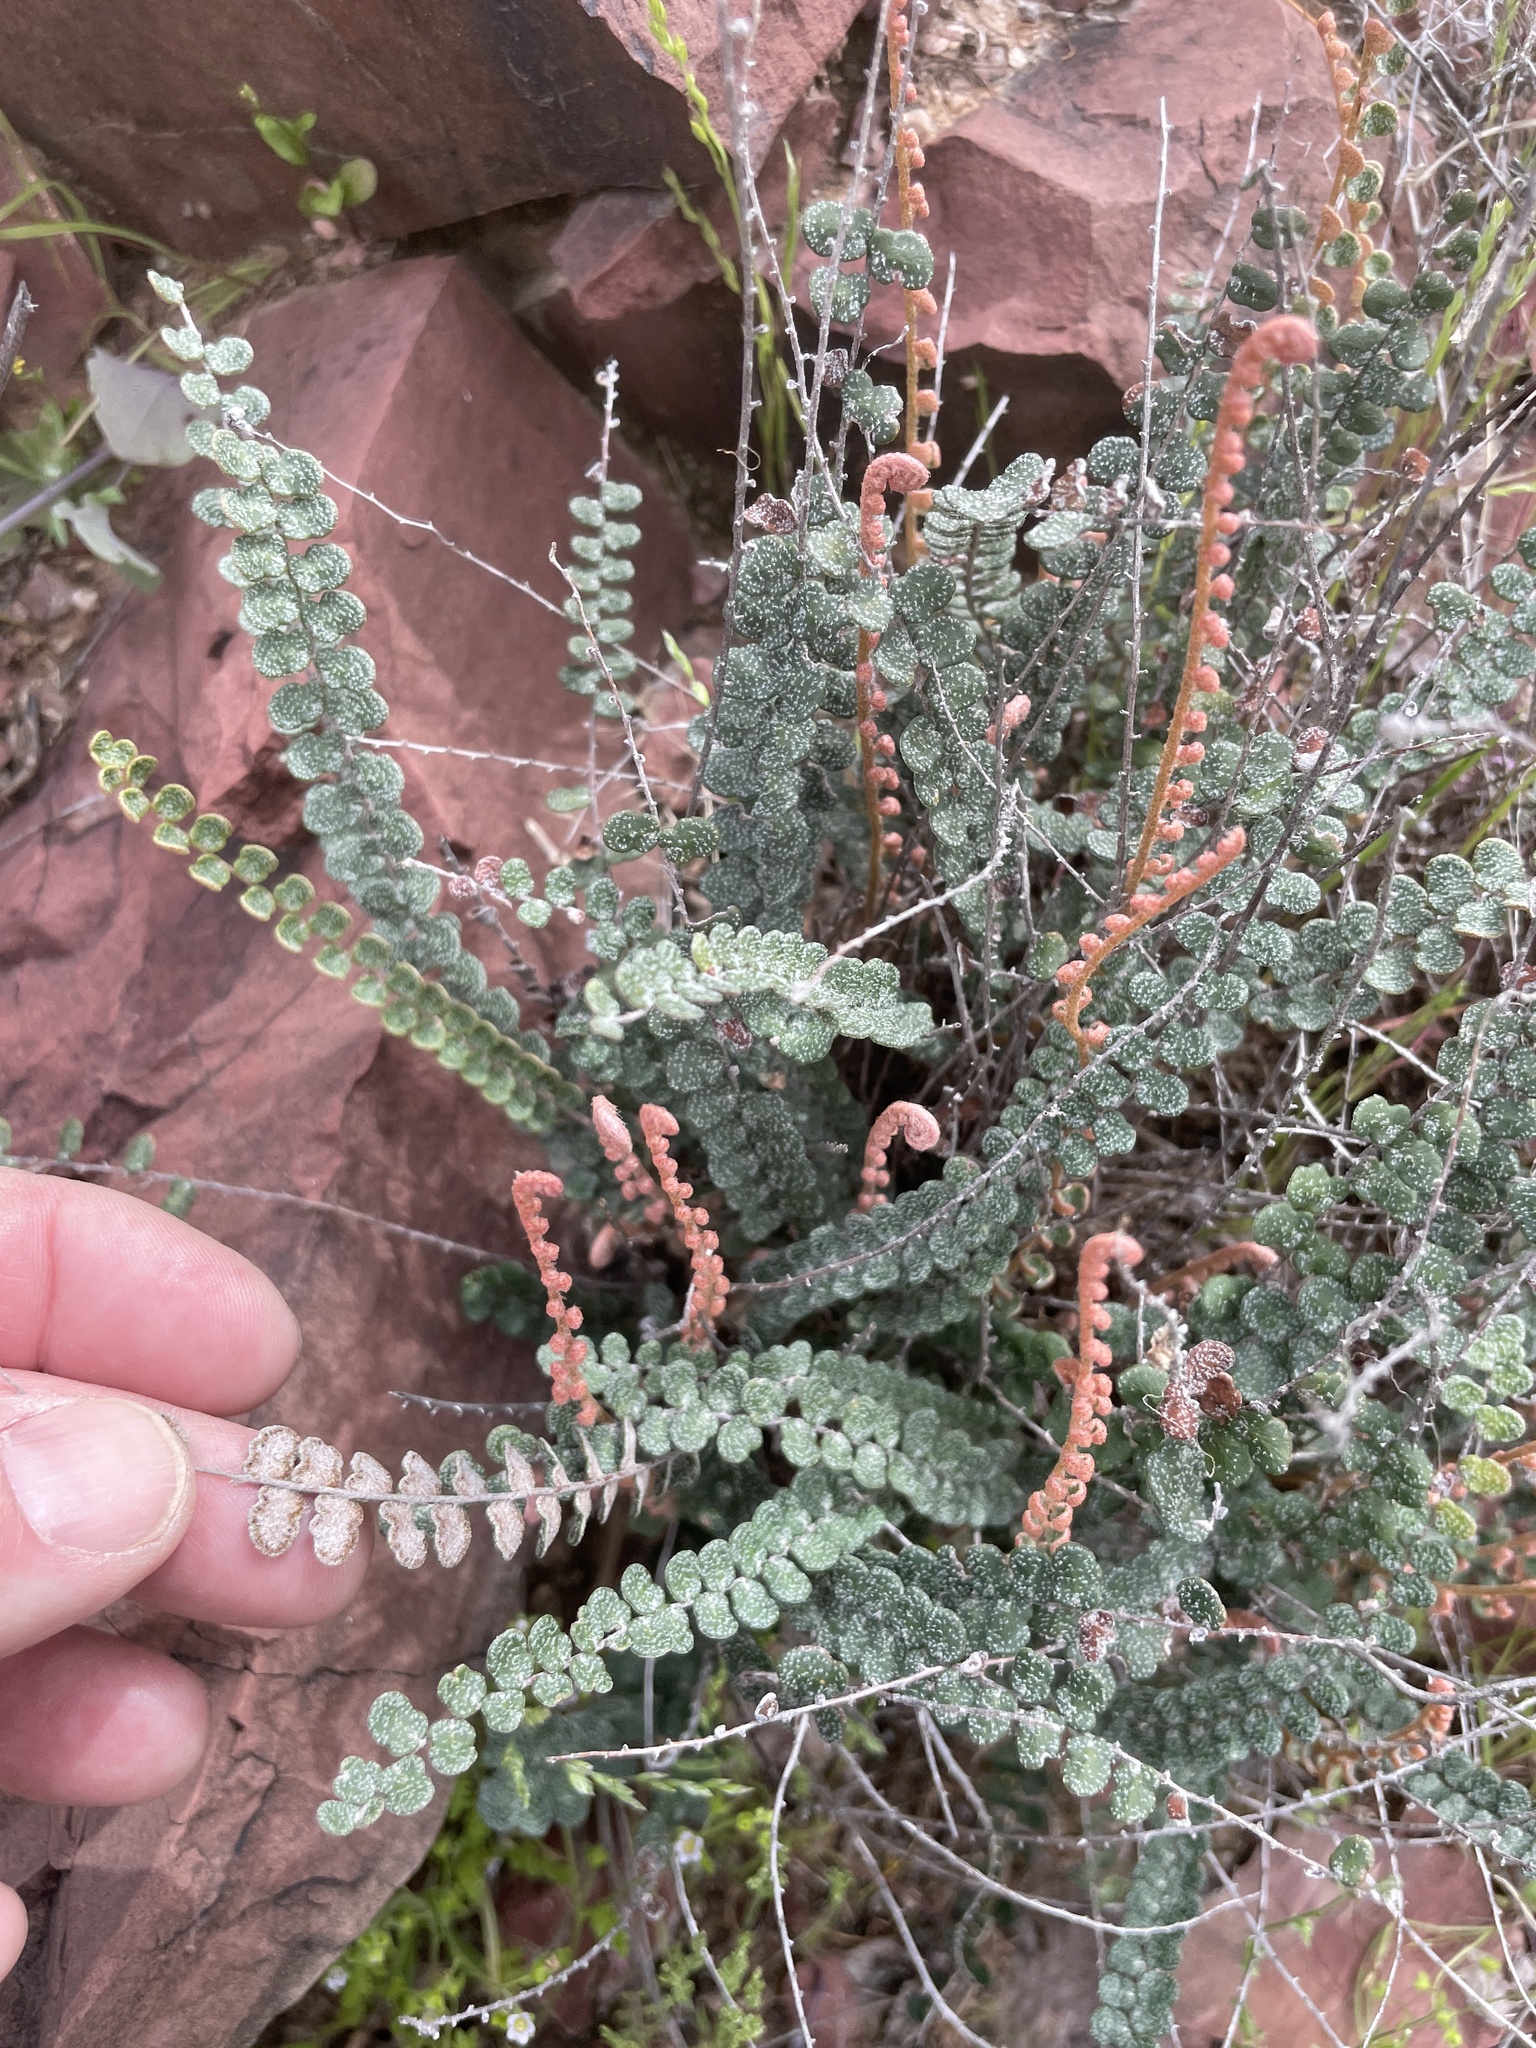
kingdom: Plantae
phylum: Tracheophyta
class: Polypodiopsida
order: Polypodiales
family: Pteridaceae
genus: Astrolepis
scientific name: Astrolepis cochisensis
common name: Scaly cloak fern
